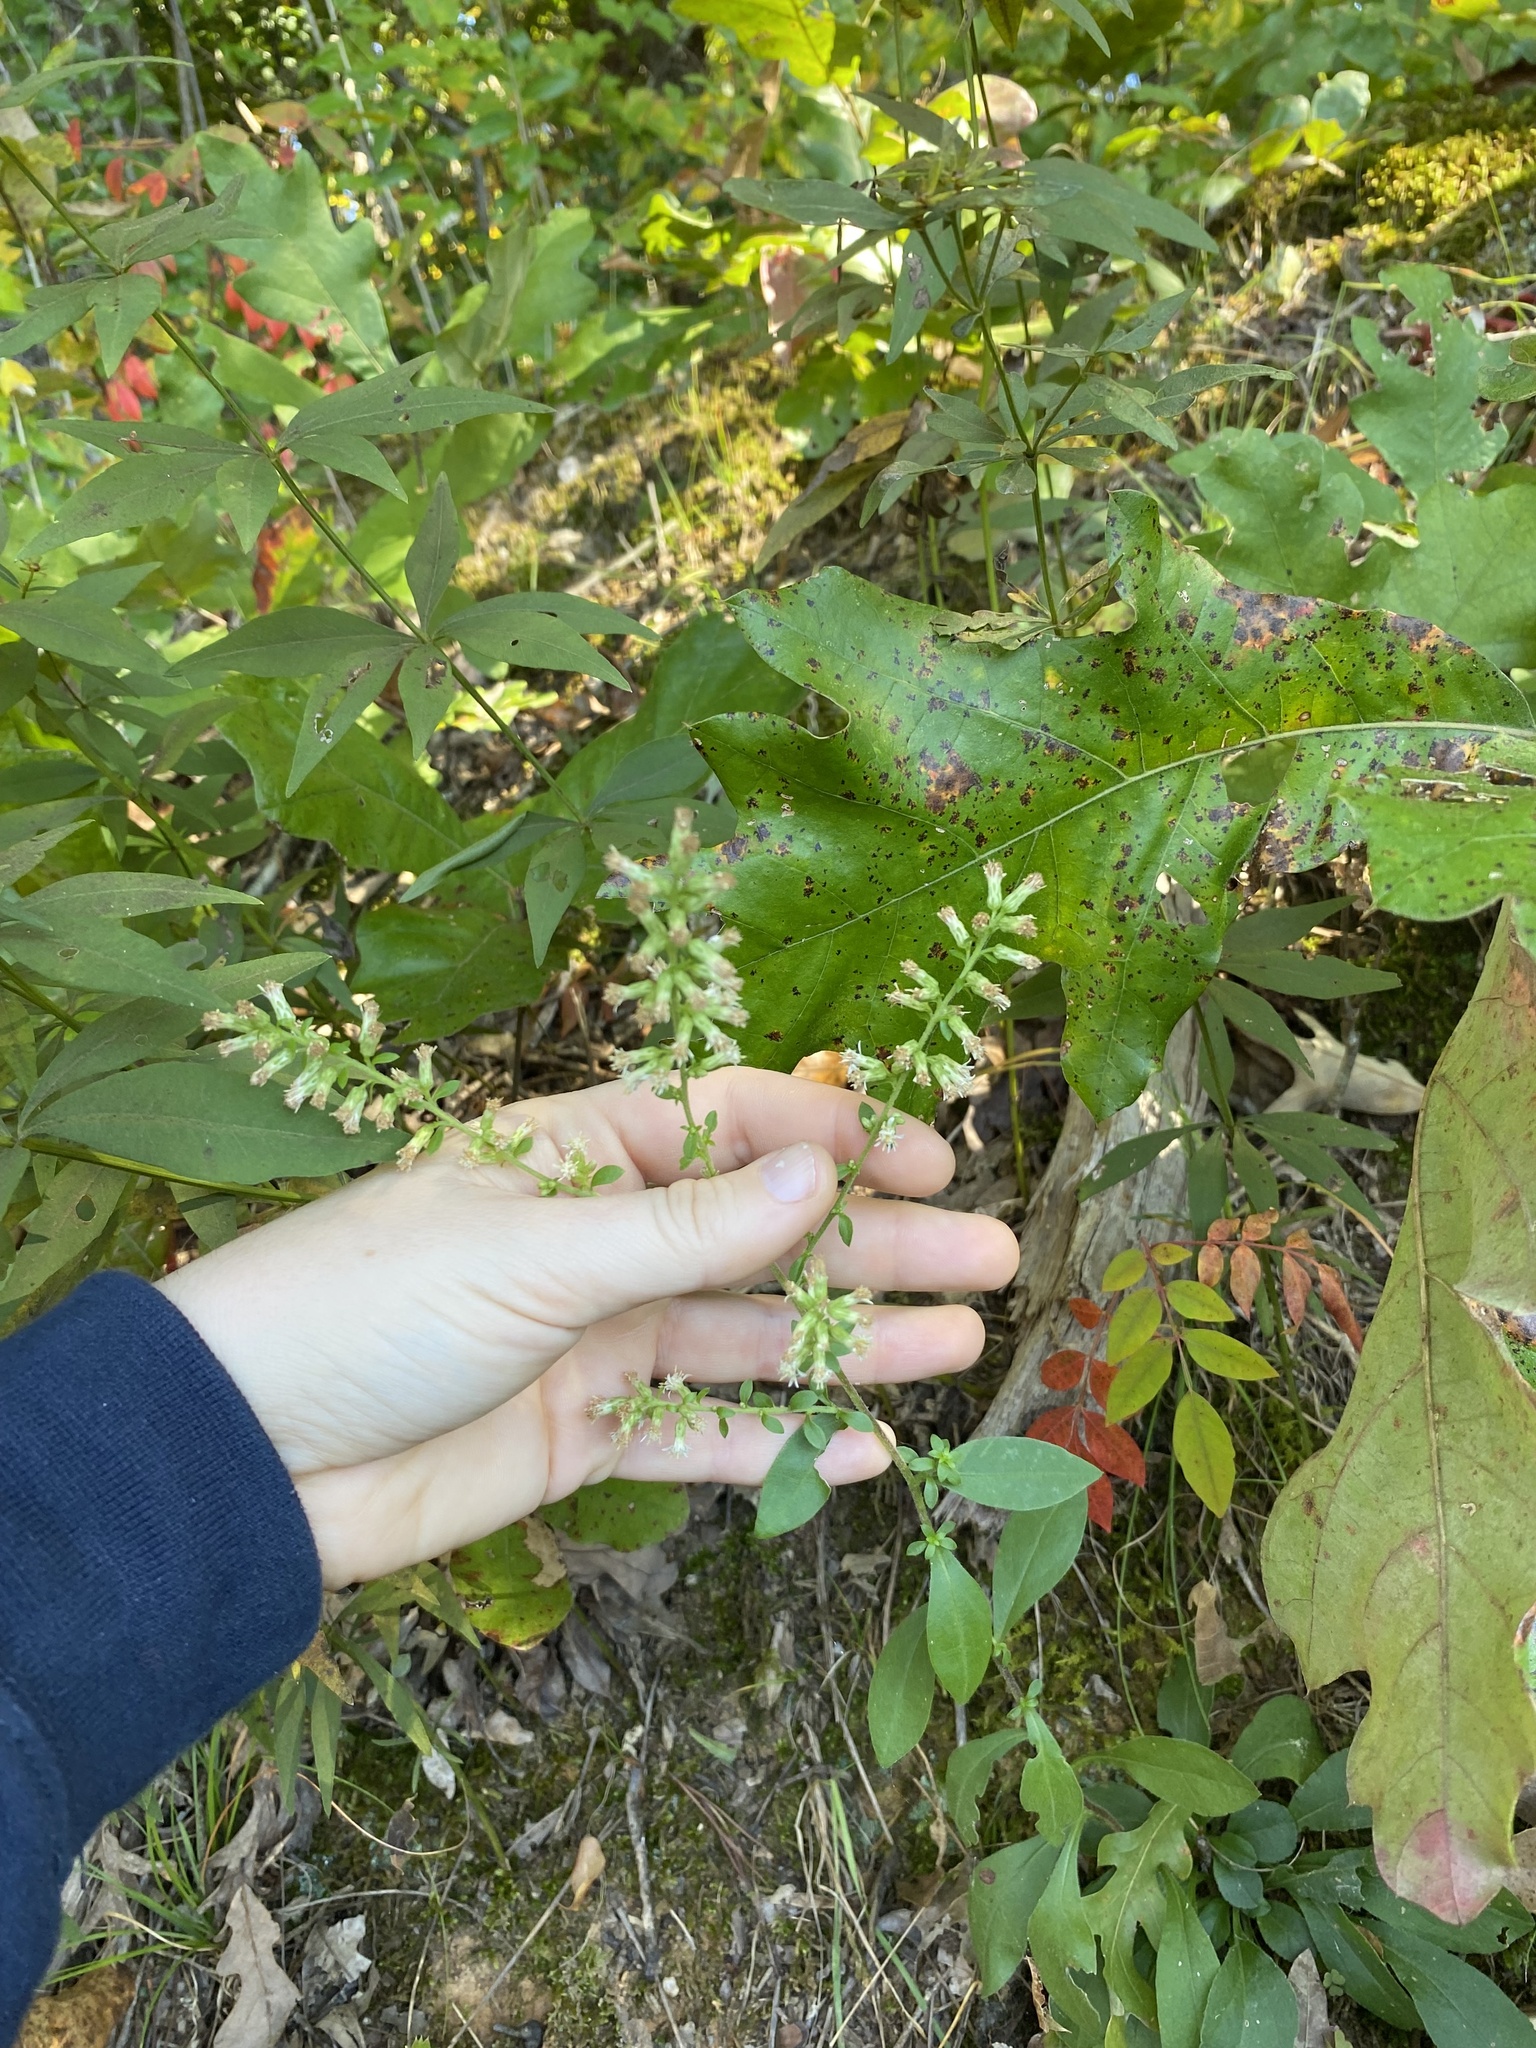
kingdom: Plantae
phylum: Tracheophyta
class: Magnoliopsida
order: Asterales
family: Asteraceae
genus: Solidago
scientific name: Solidago bicolor
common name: Silverrod
